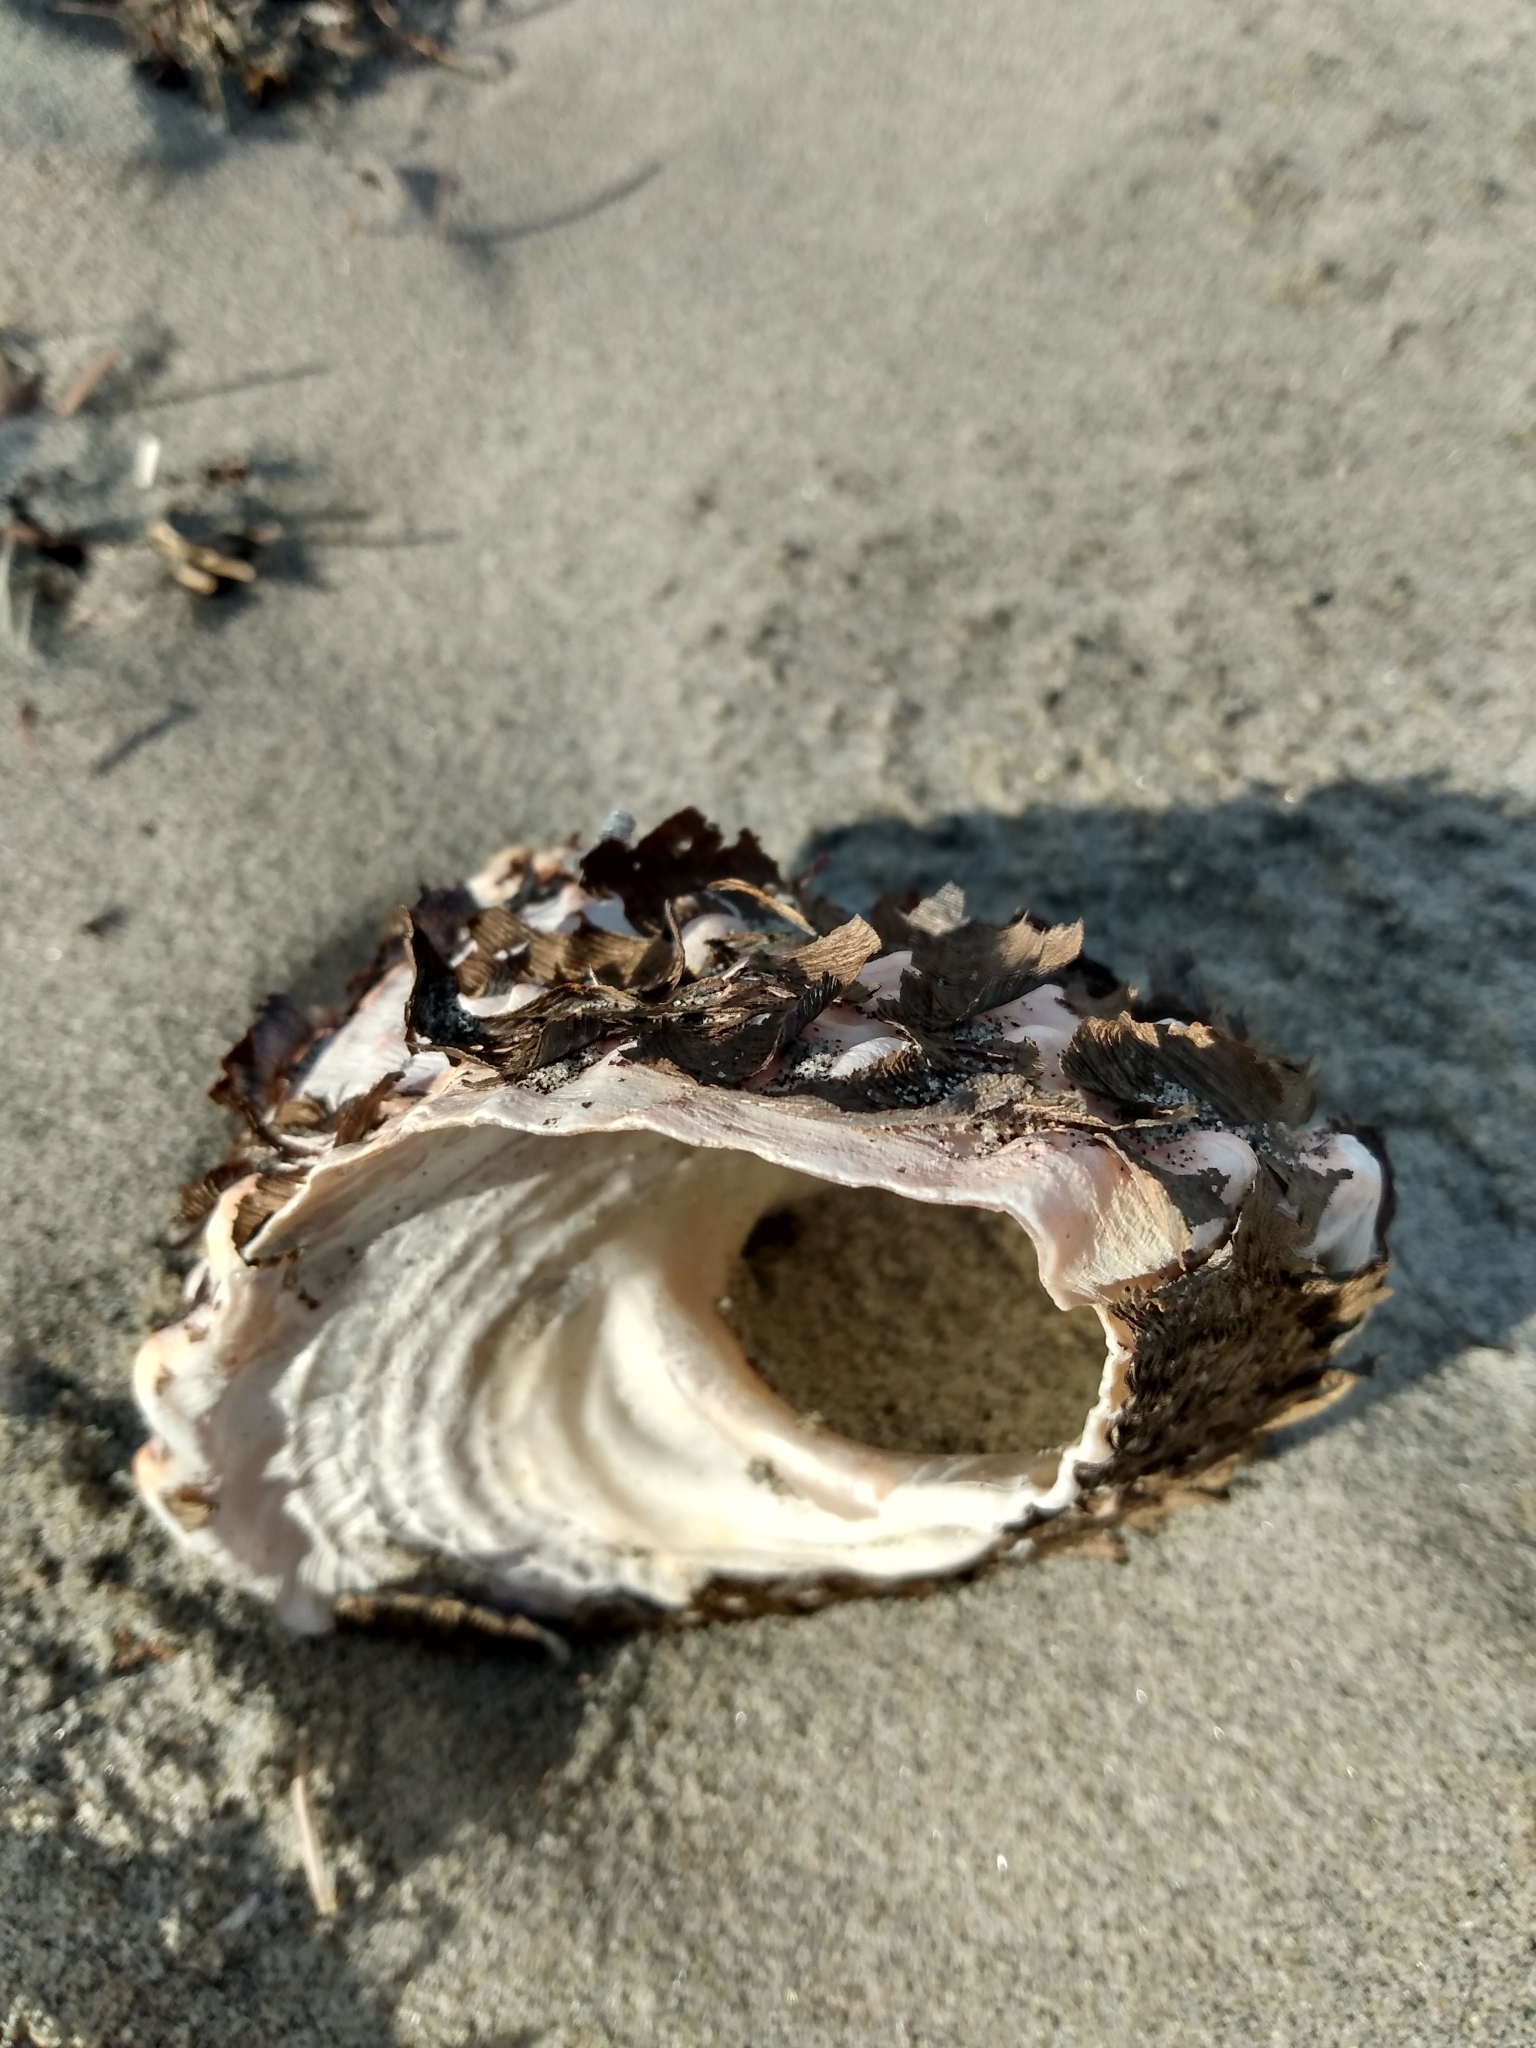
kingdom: Animalia
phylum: Mollusca
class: Gastropoda
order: Trochida
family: Turbinidae
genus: Megastraea
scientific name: Megastraea undosa
